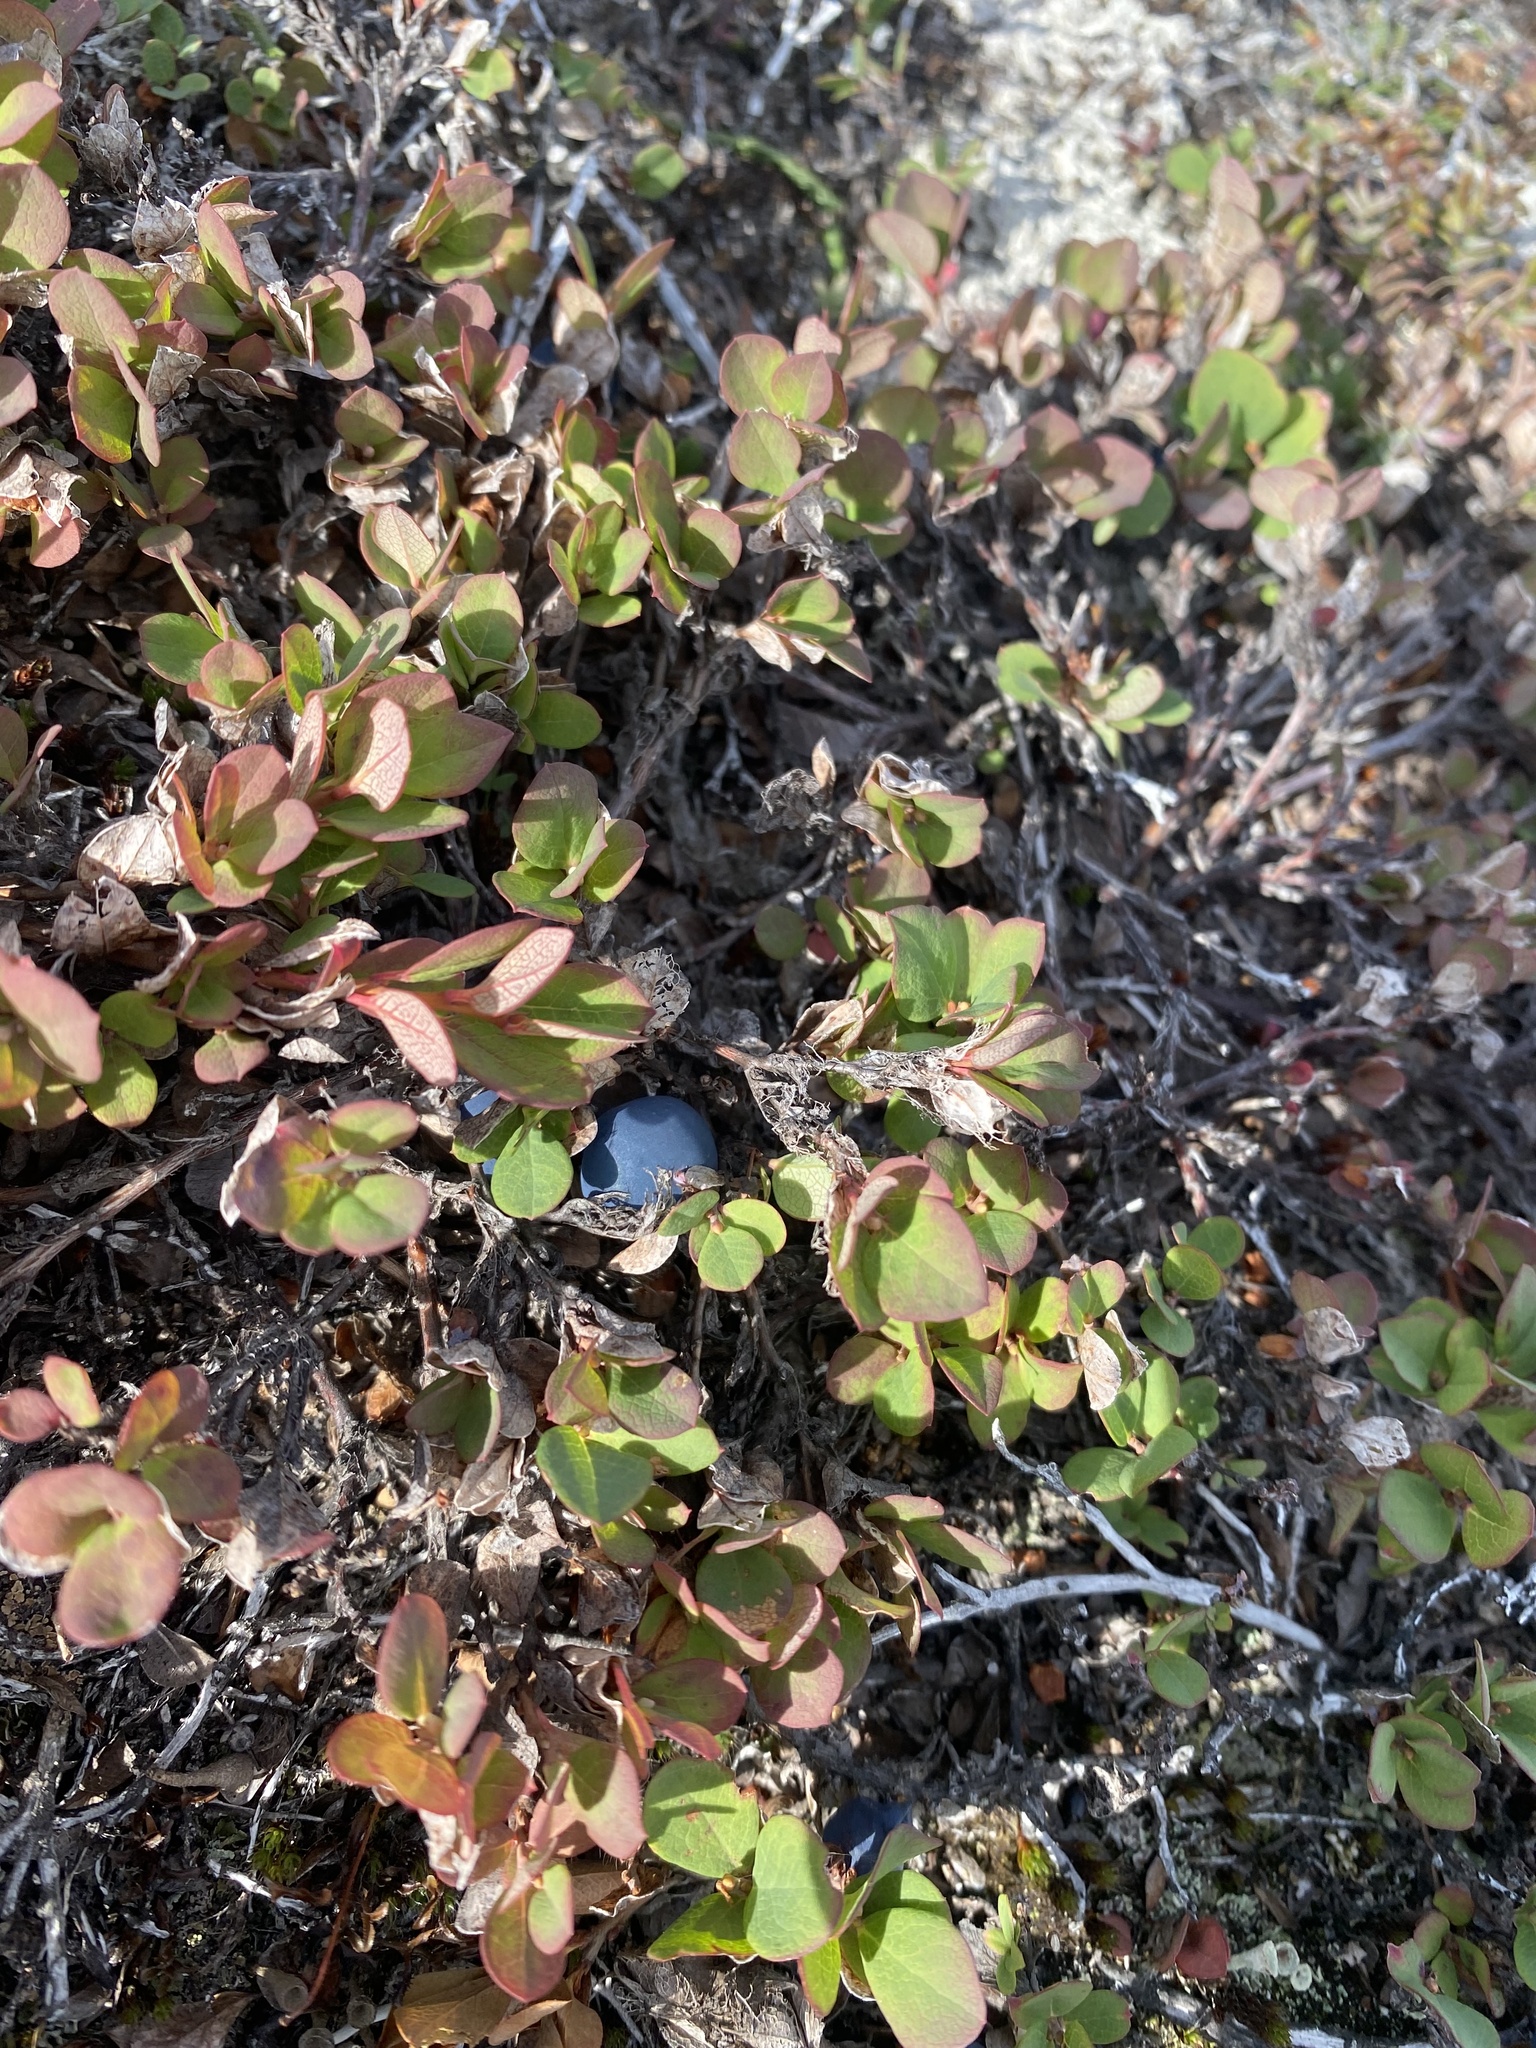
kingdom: Plantae
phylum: Tracheophyta
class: Magnoliopsida
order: Ericales
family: Ericaceae
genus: Vaccinium
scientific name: Vaccinium uliginosum
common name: Bog bilberry
